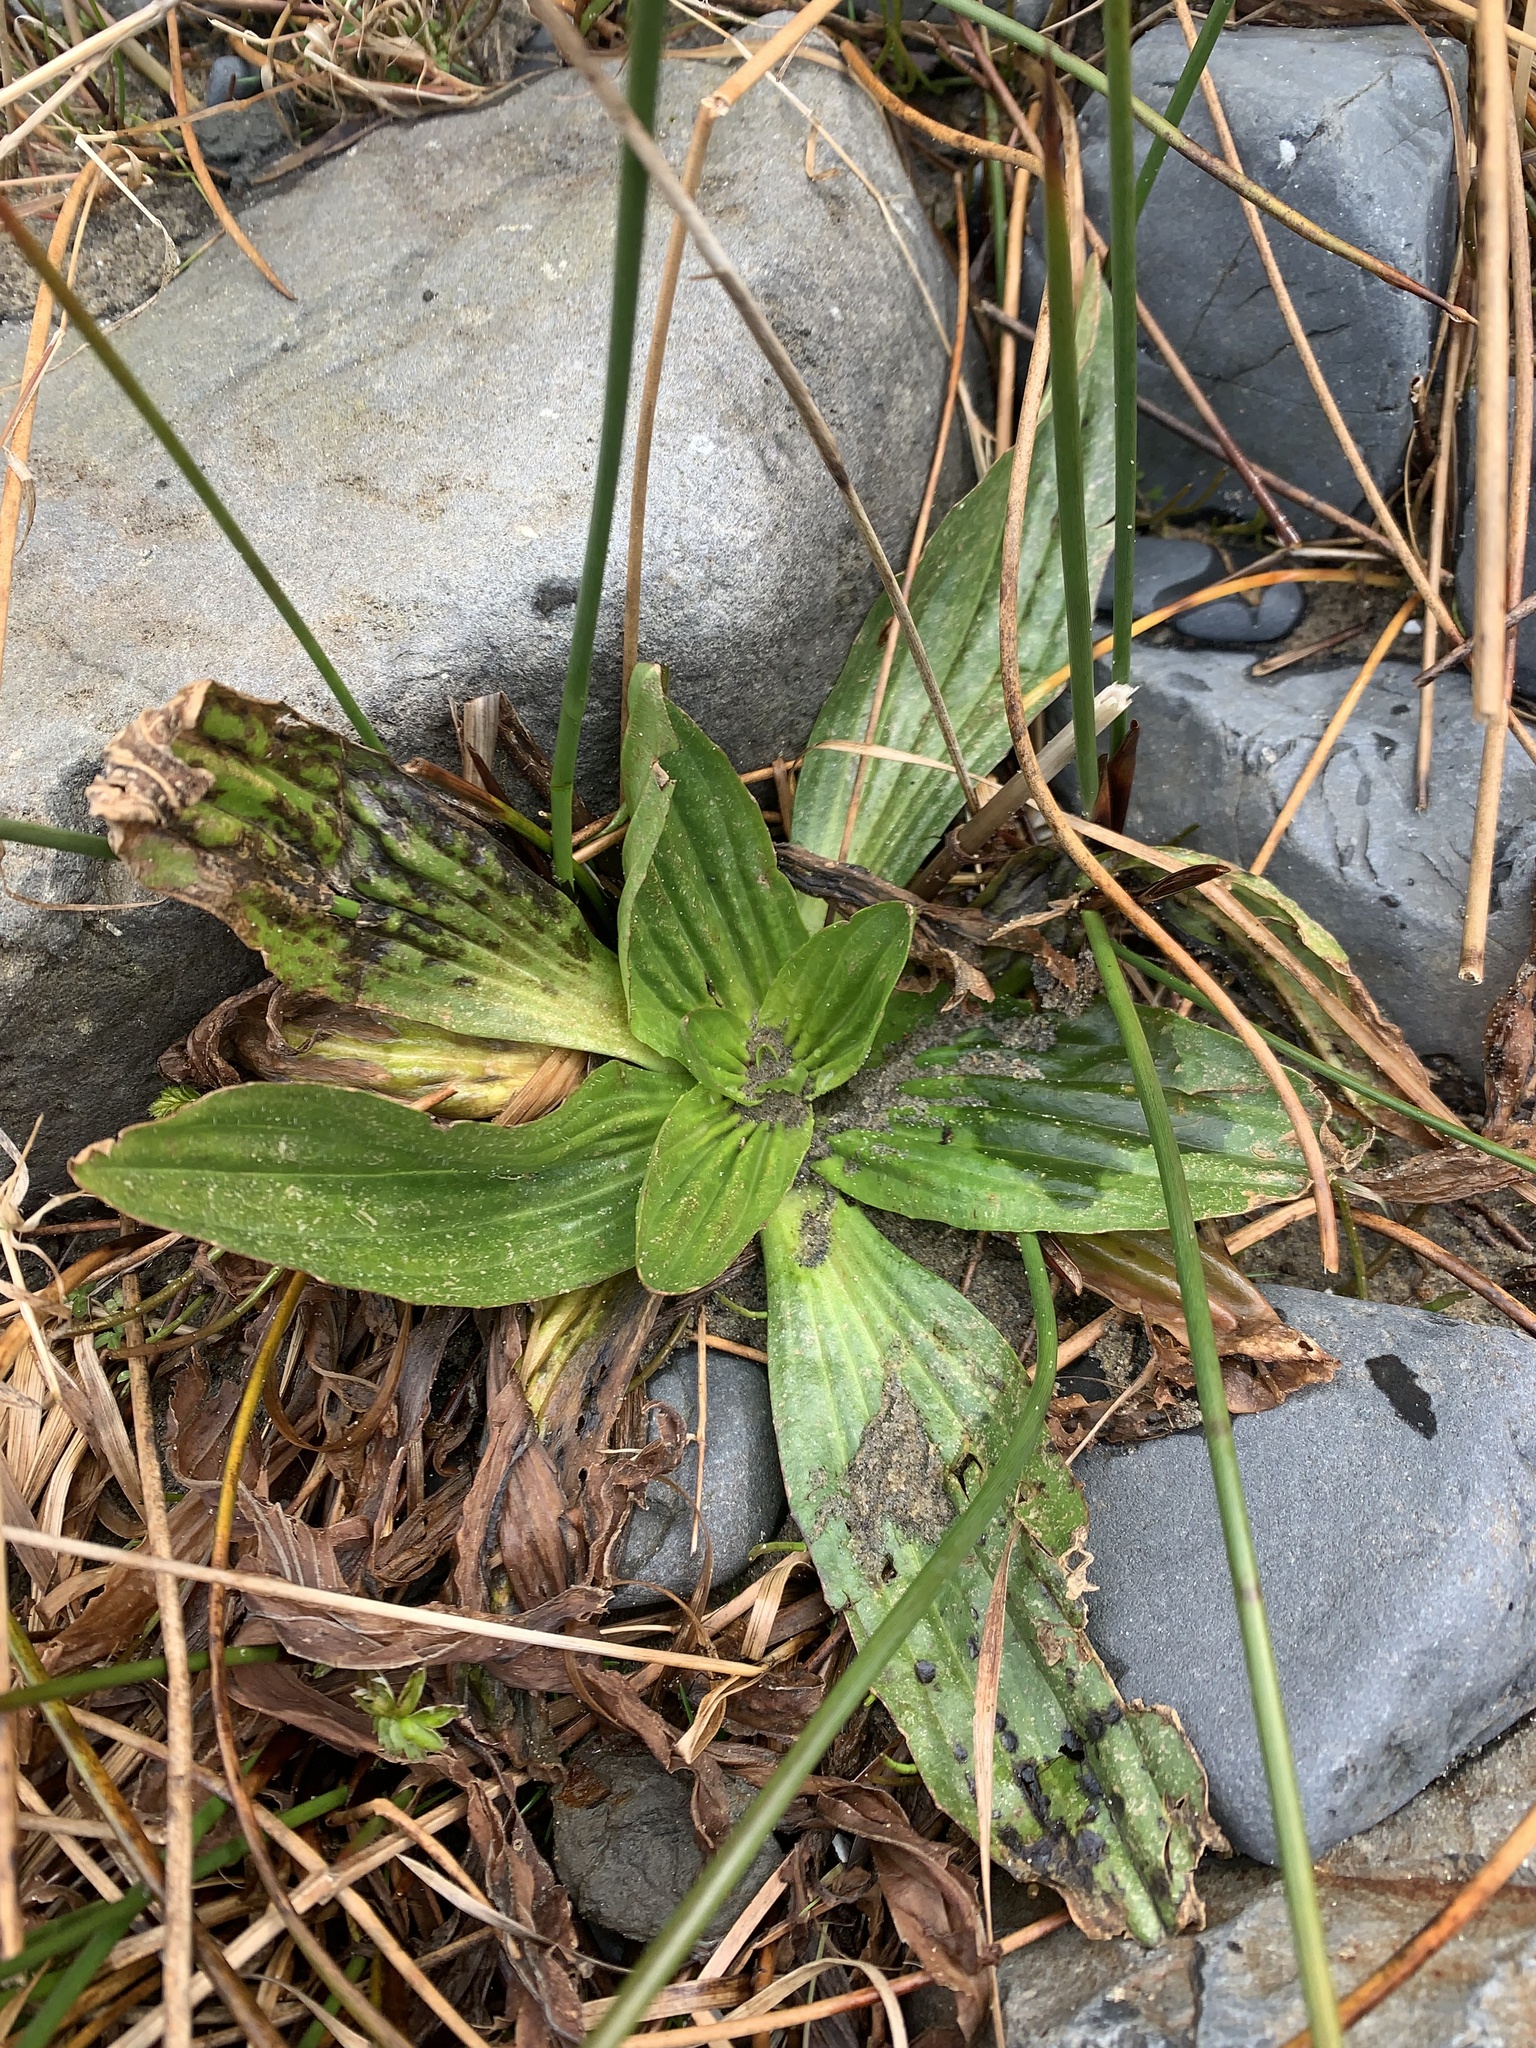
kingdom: Plantae
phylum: Tracheophyta
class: Magnoliopsida
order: Lamiales
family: Plantaginaceae
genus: Plantago
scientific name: Plantago lanceolata
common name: Ribwort plantain
